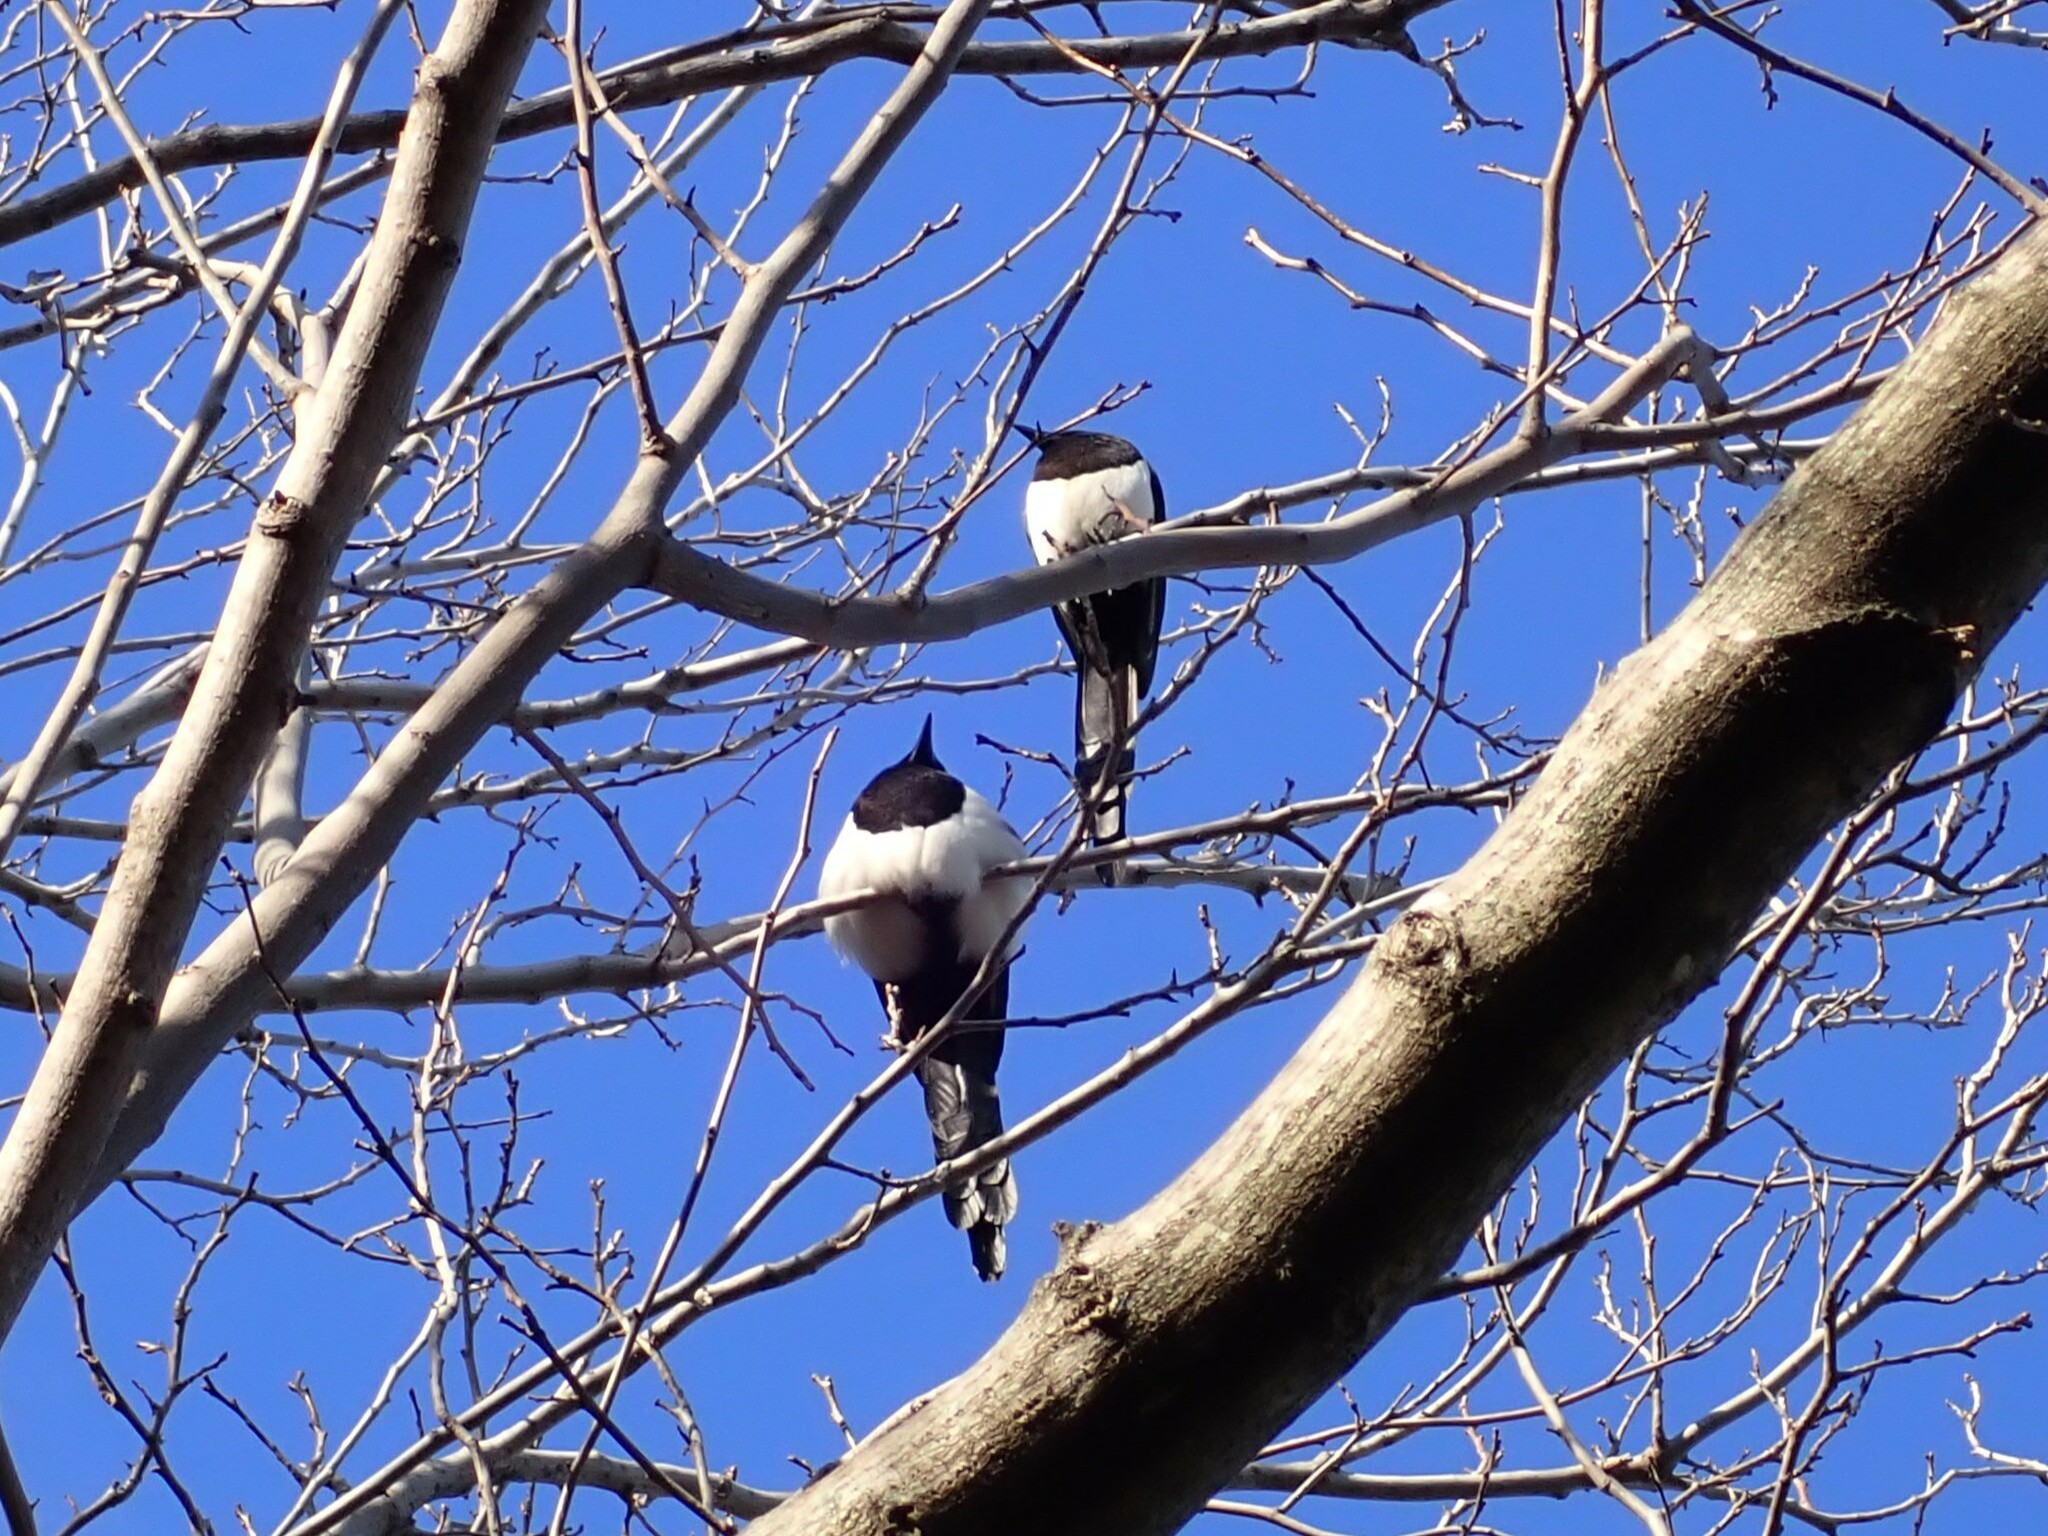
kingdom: Animalia
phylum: Chordata
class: Aves
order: Passeriformes
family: Corvidae
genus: Pica
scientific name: Pica pica
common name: Eurasian magpie
